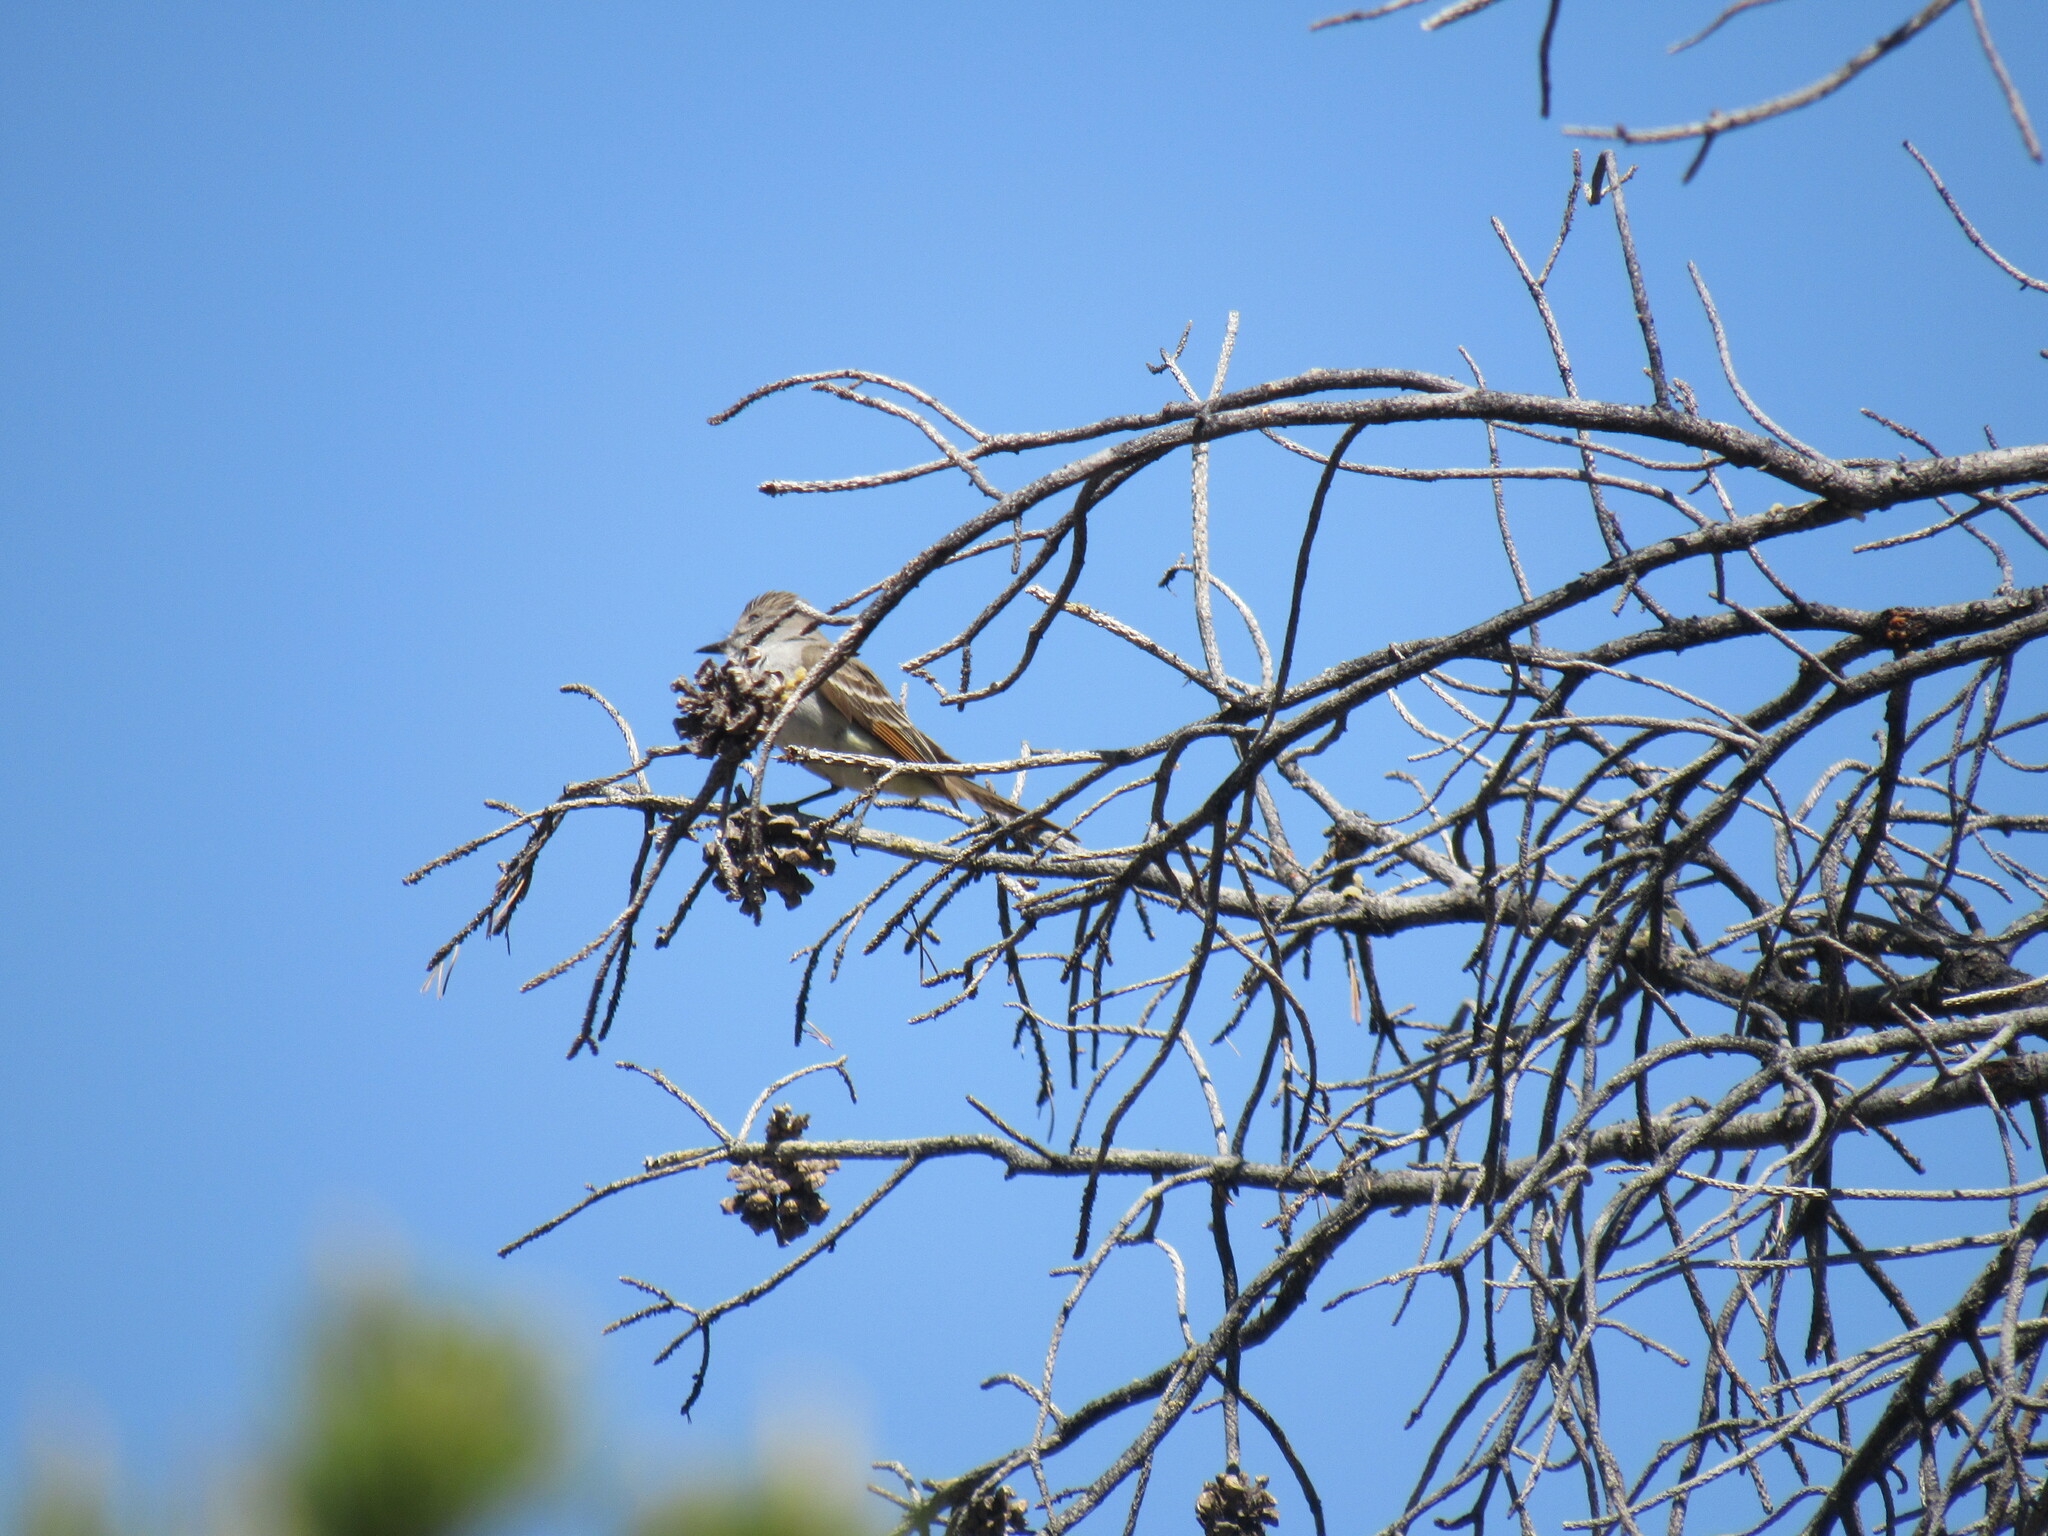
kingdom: Animalia
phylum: Chordata
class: Aves
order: Passeriformes
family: Tyrannidae
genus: Myiarchus
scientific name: Myiarchus cinerascens
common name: Ash-throated flycatcher
